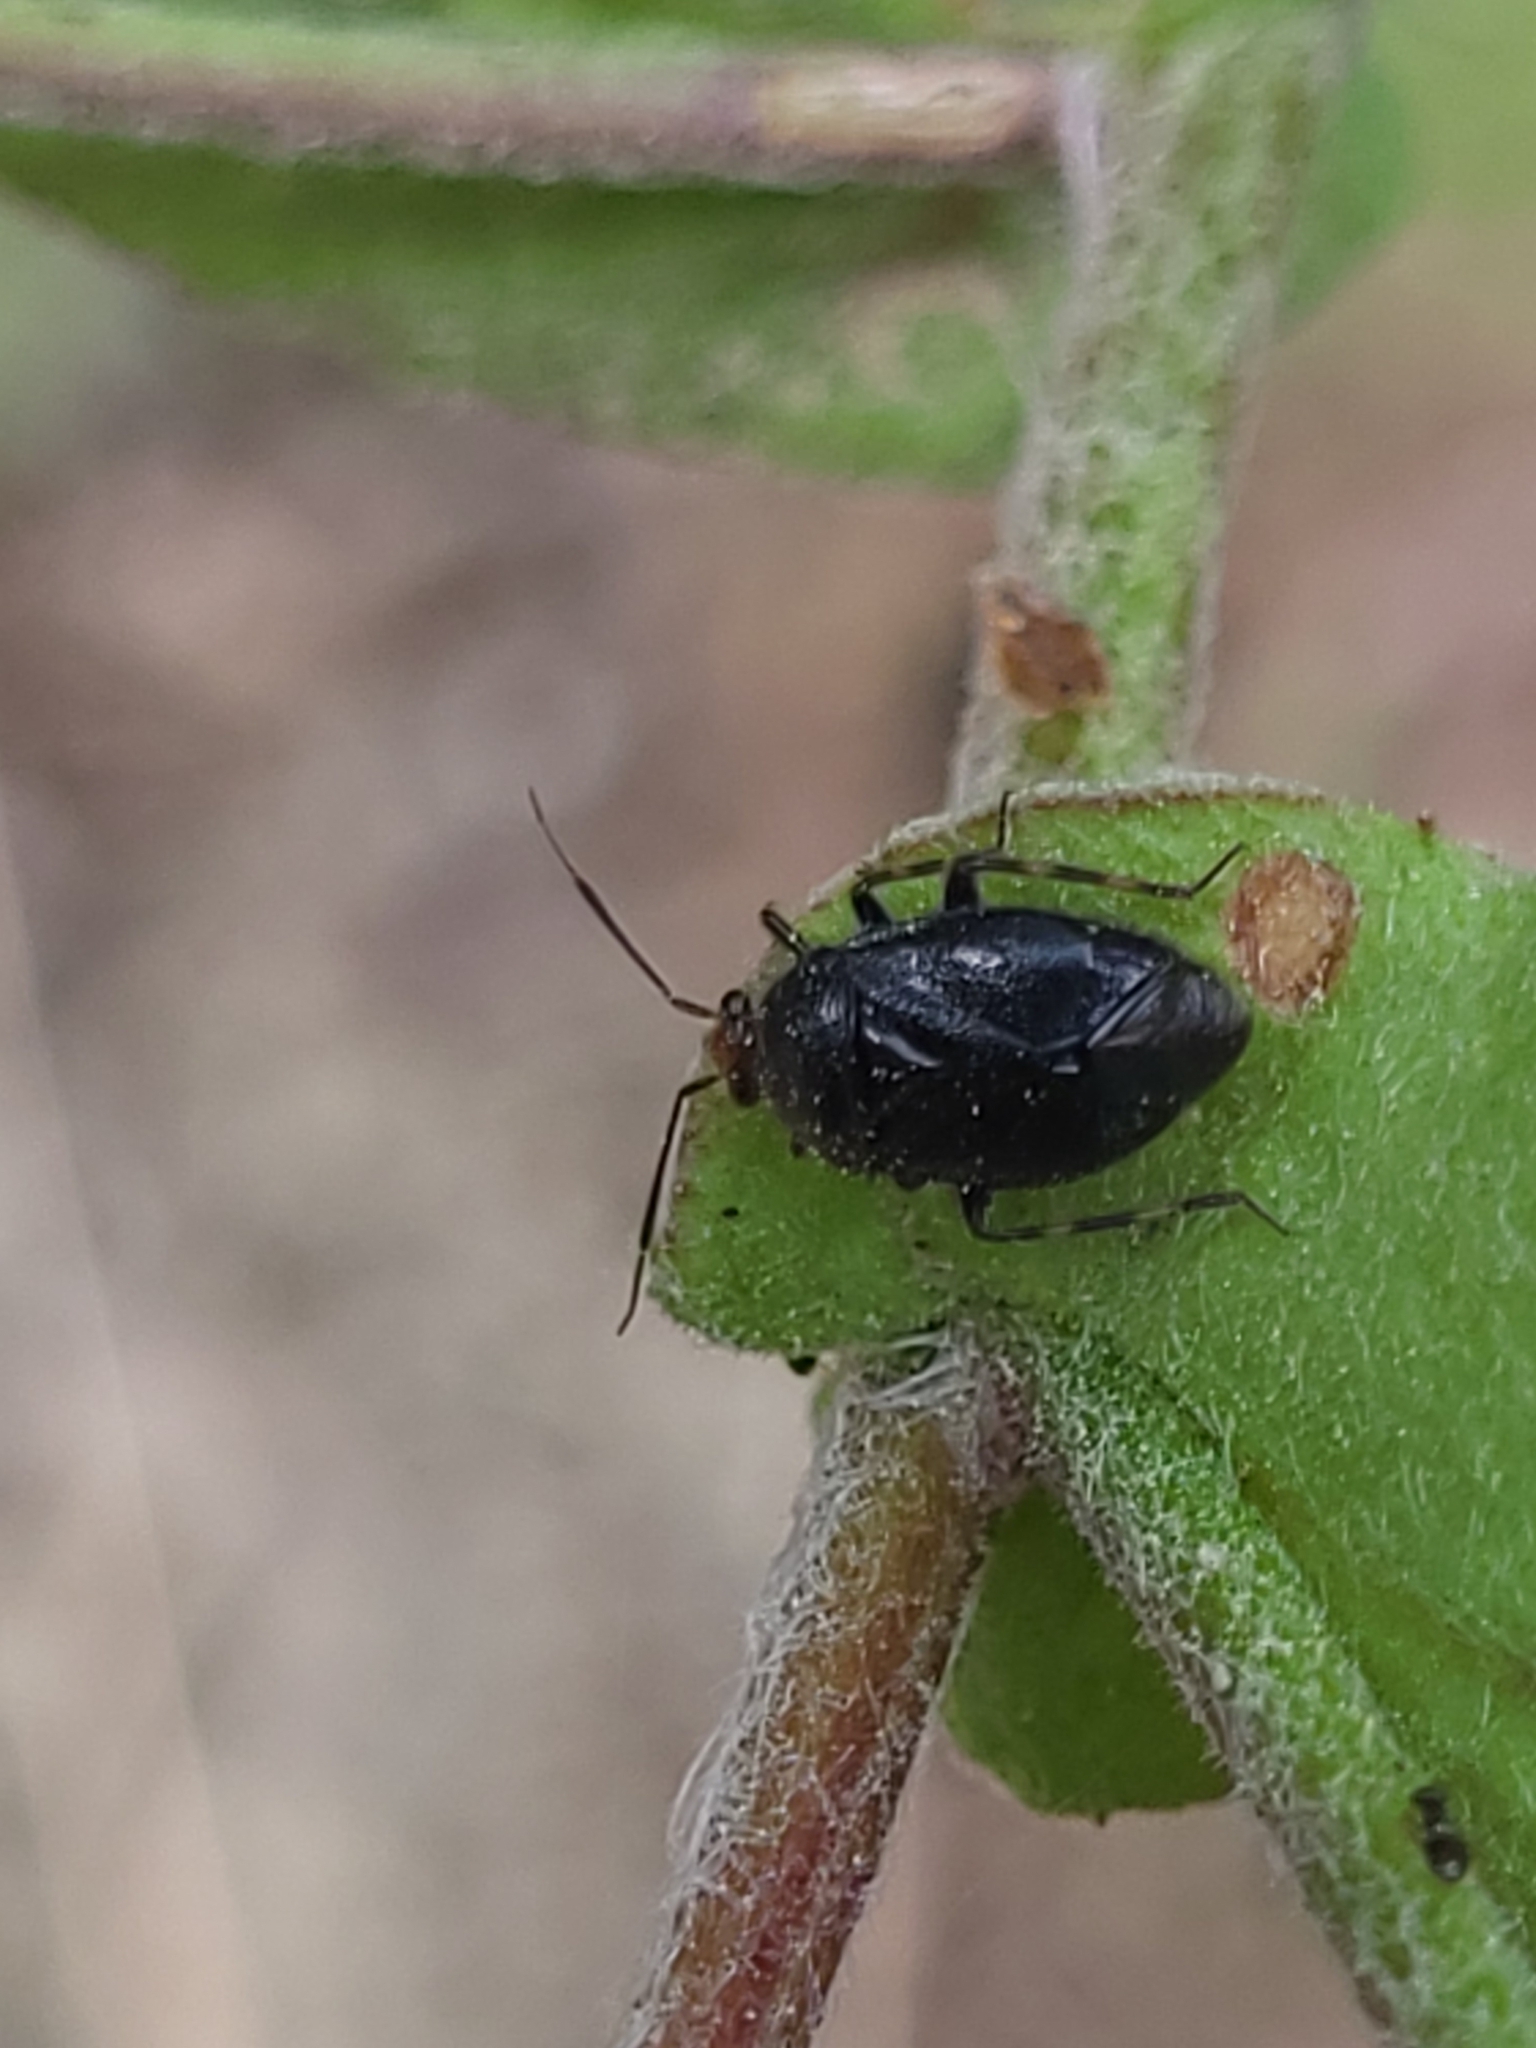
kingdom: Animalia
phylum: Arthropoda
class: Insecta
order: Hemiptera
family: Miridae
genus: Deraeocoris
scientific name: Deraeocoris schach
